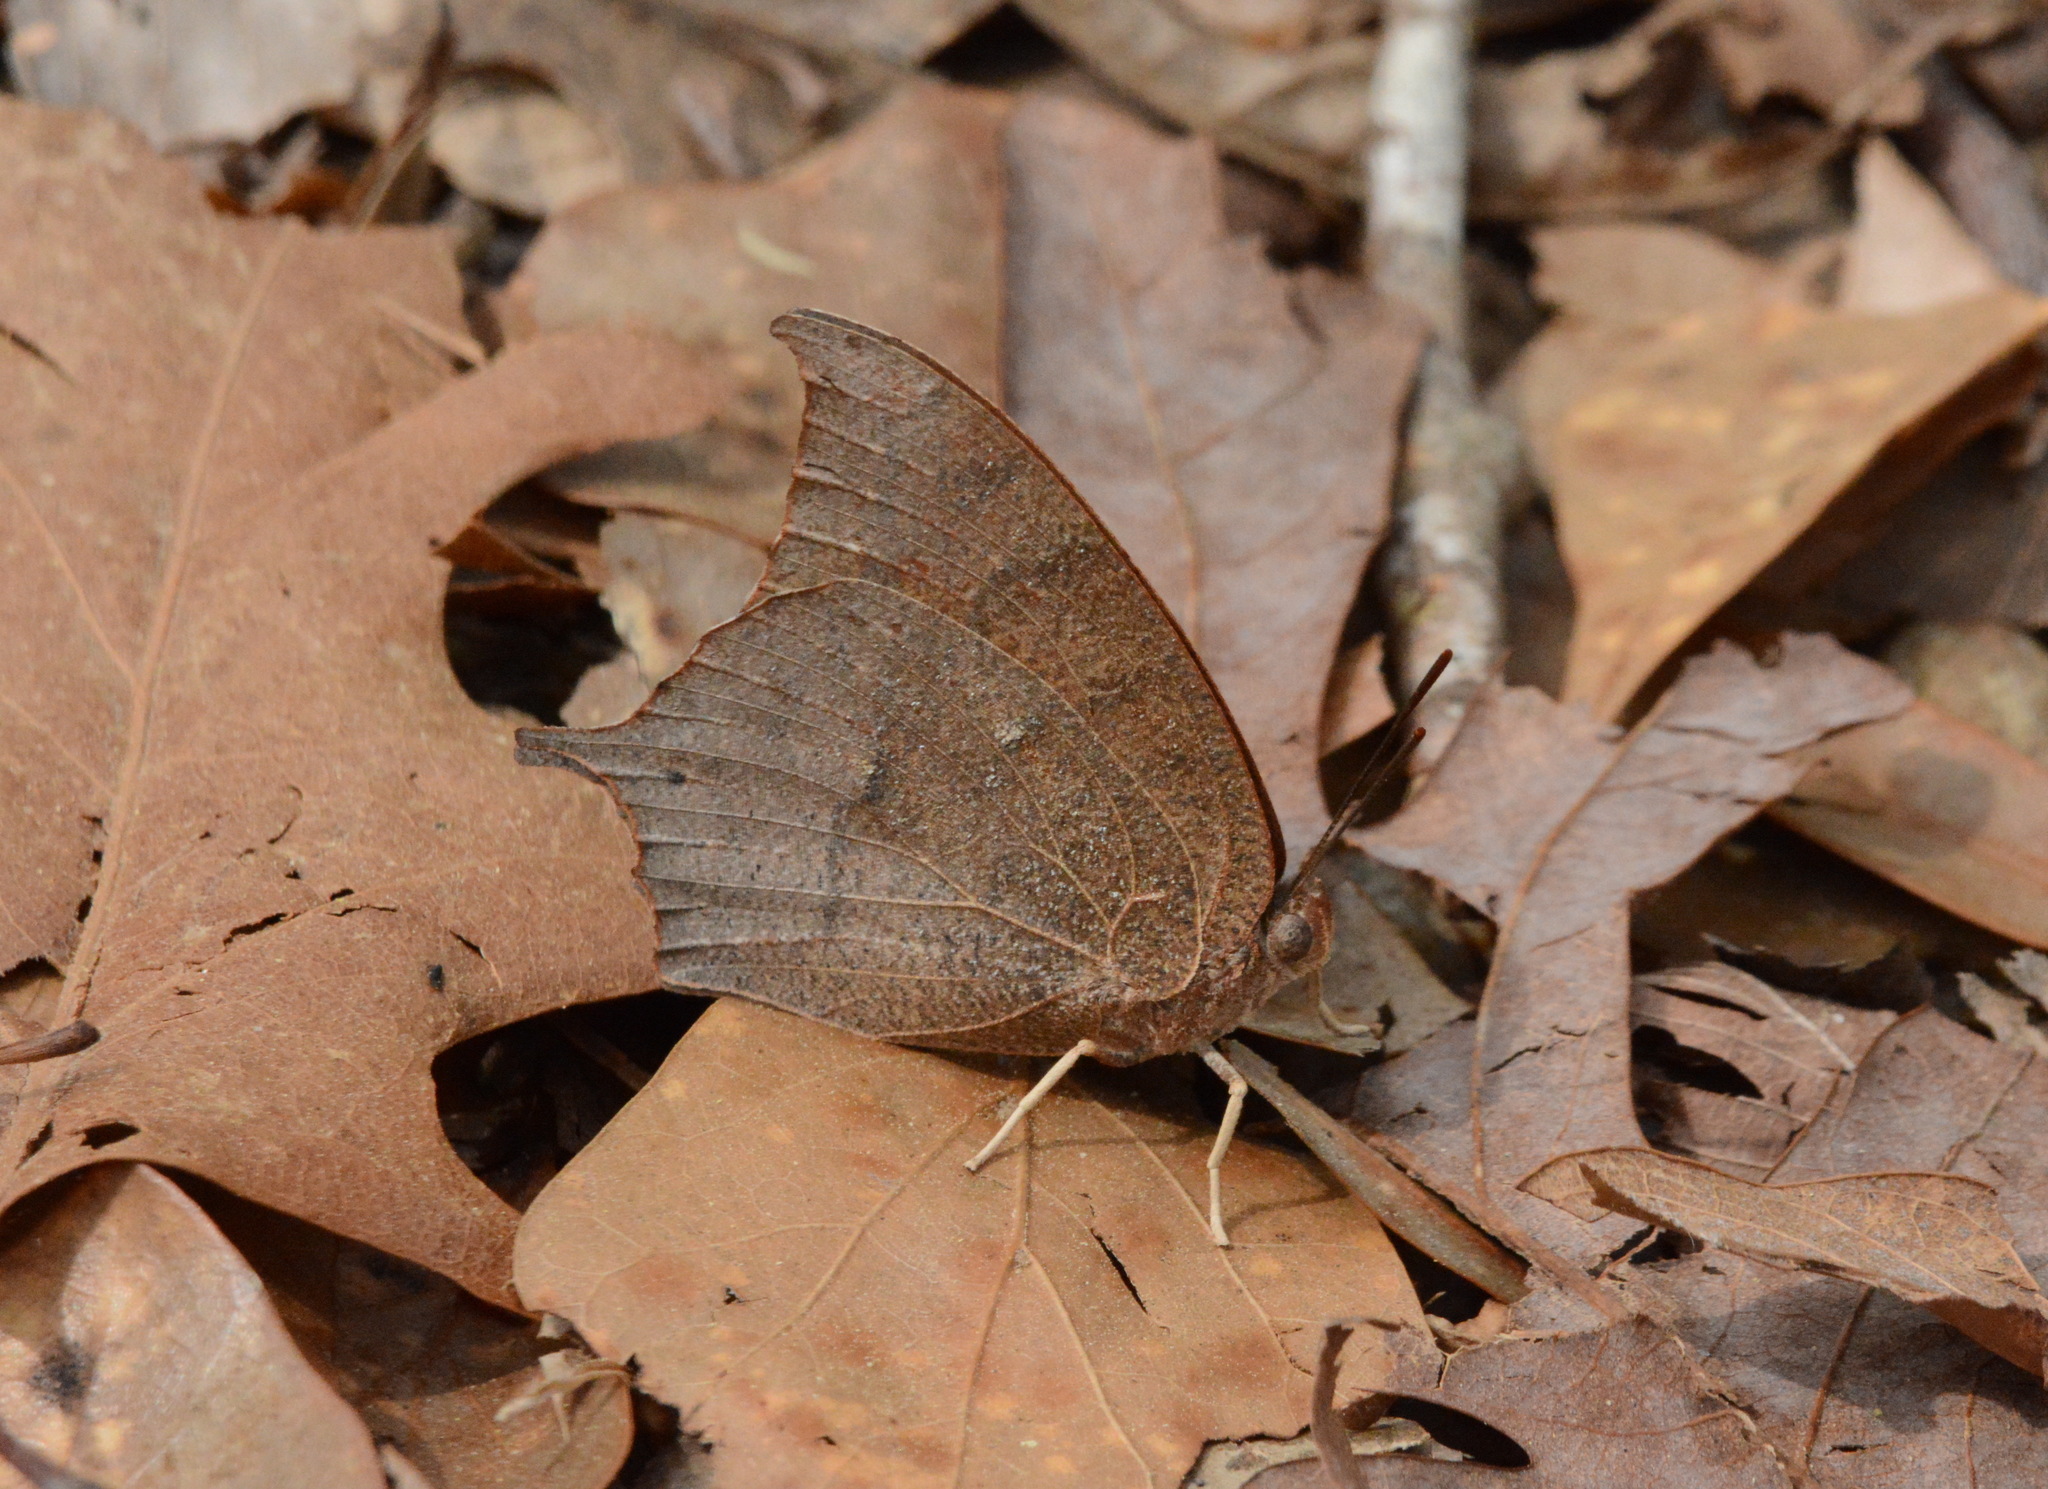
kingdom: Animalia
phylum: Arthropoda
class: Insecta
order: Lepidoptera
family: Nymphalidae
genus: Anaea
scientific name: Anaea andria
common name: Goatweed leafwing
